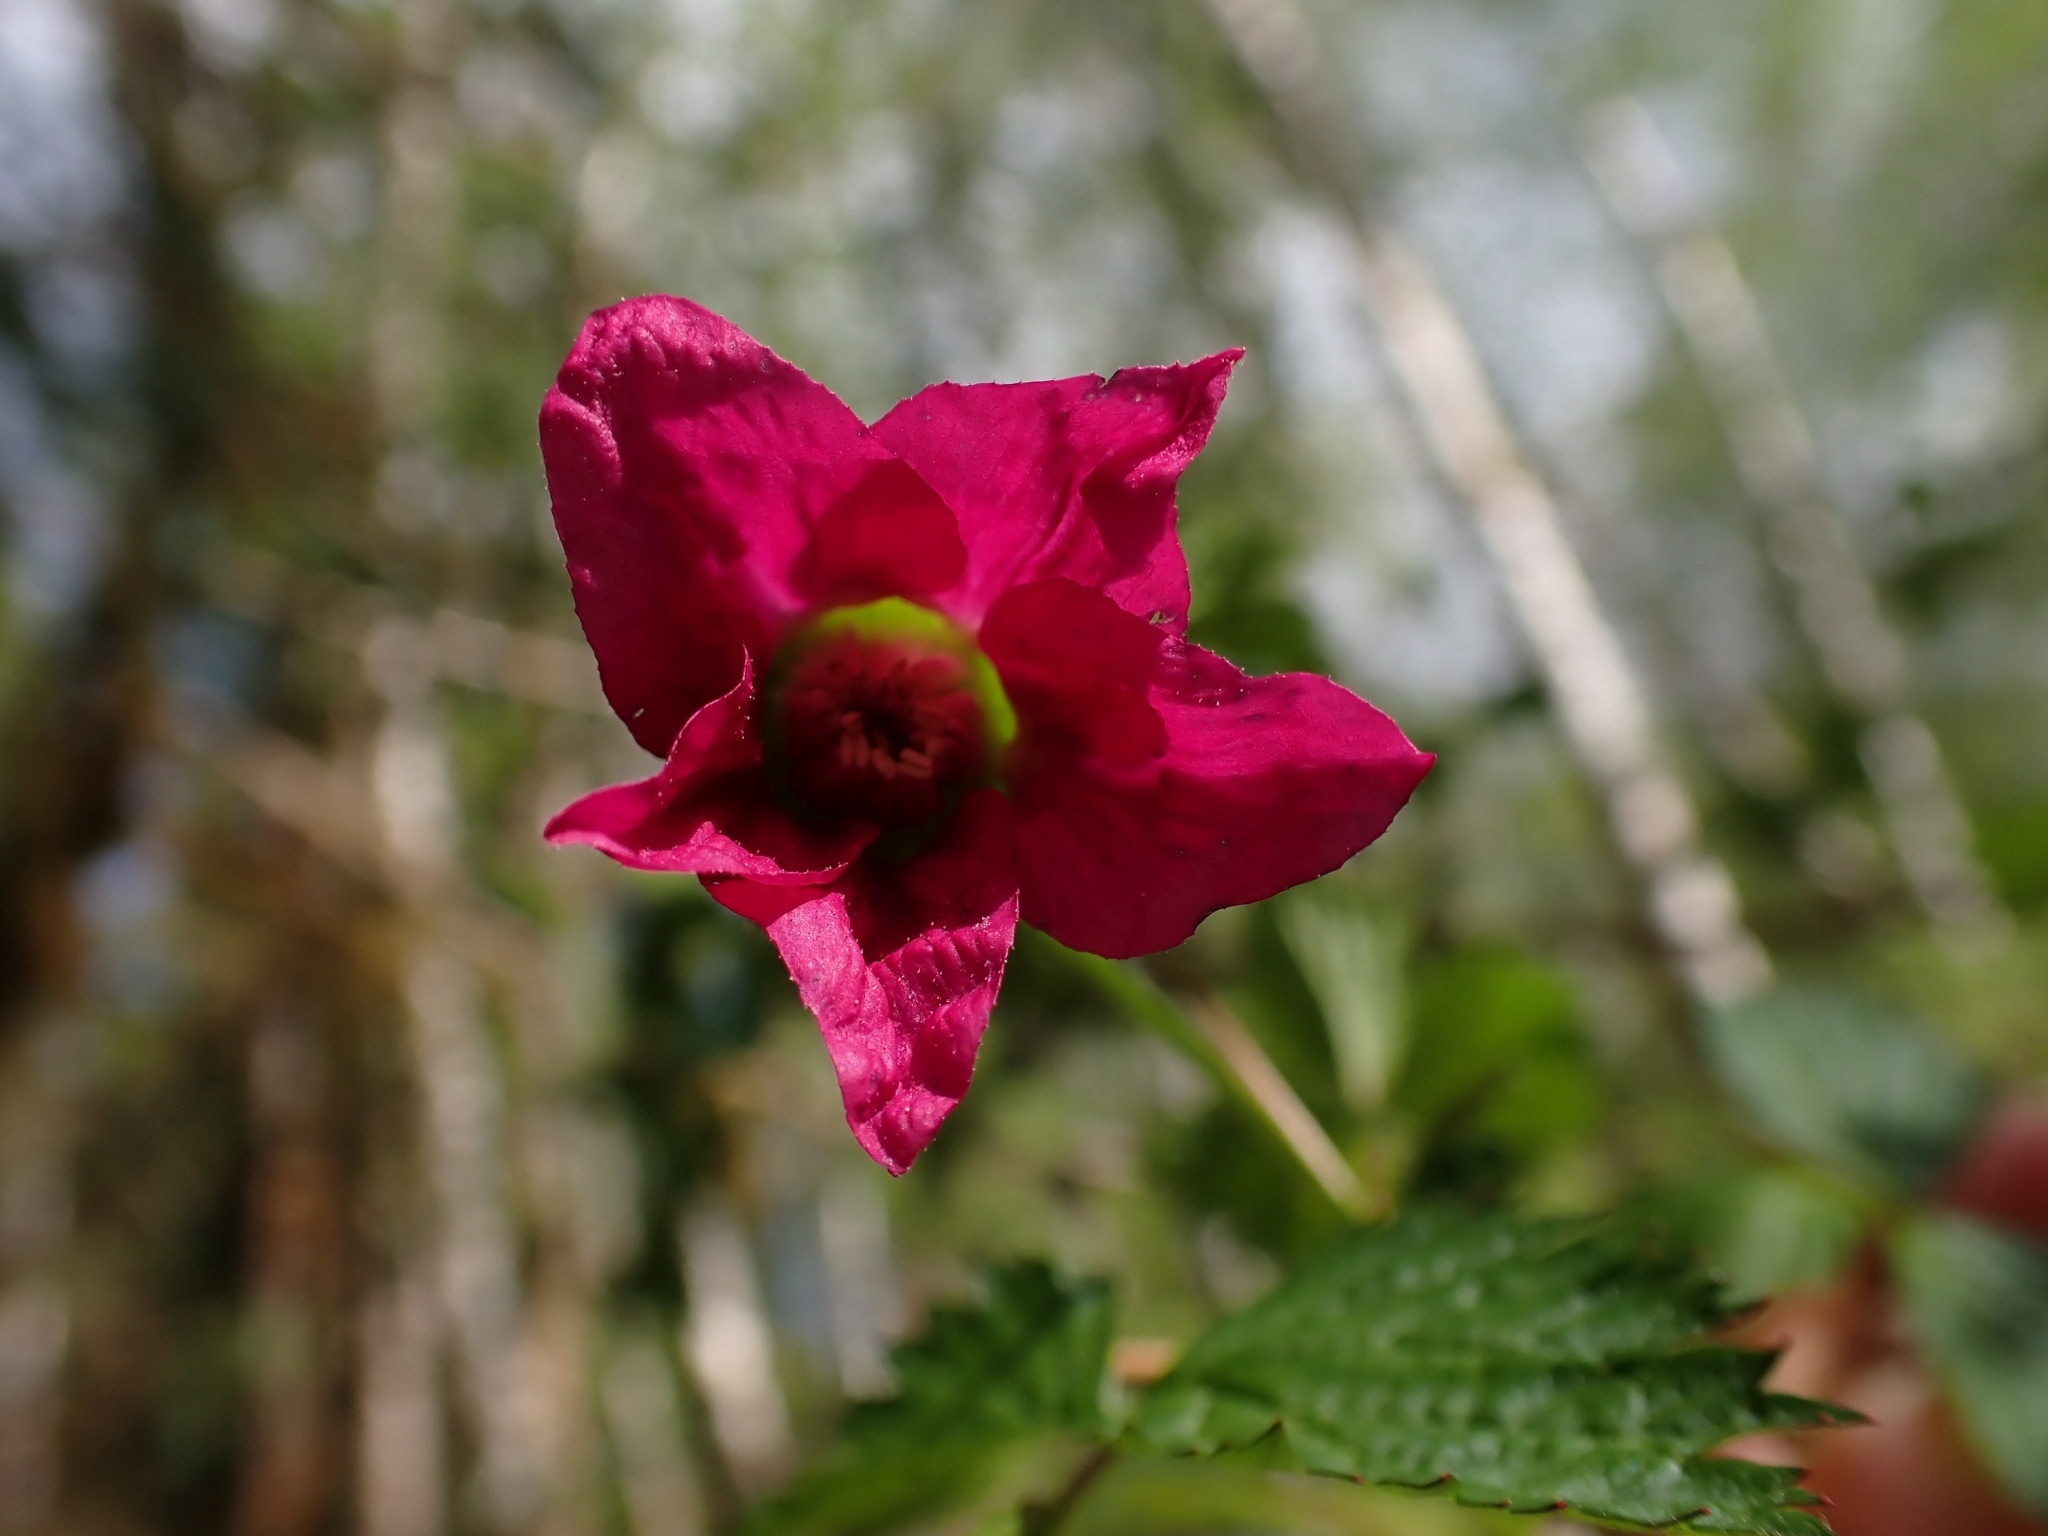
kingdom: Plantae
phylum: Tracheophyta
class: Magnoliopsida
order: Rosales
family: Rosaceae
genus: Rubus
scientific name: Rubus spectabilis
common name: Salmonberry
